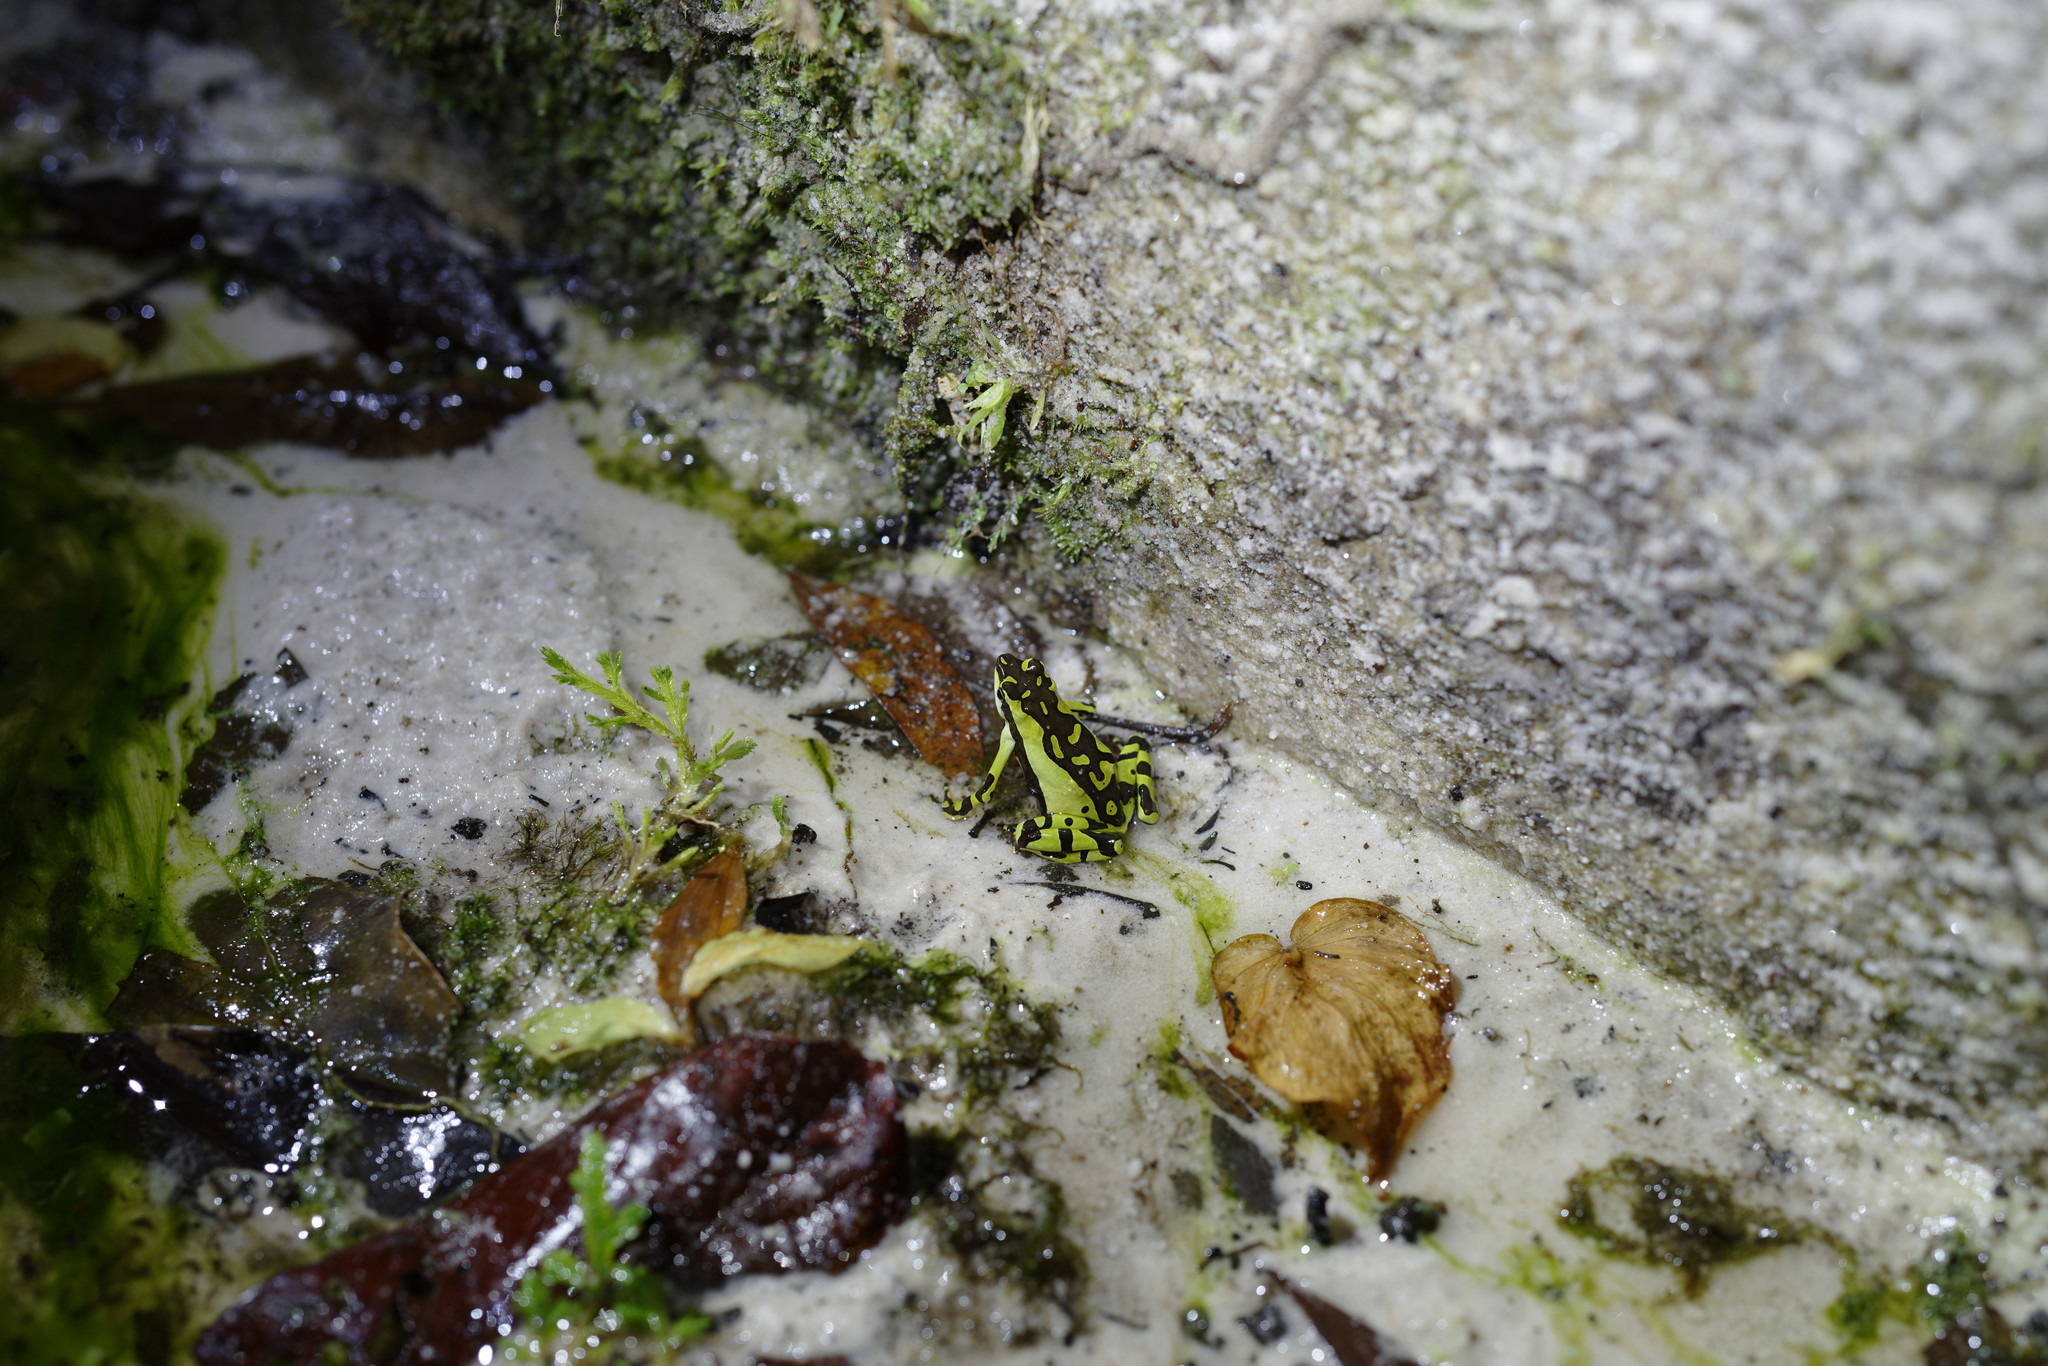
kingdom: Animalia
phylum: Chordata
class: Amphibia
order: Anura
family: Bufonidae
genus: Atelopus
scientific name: Atelopus pulcher
